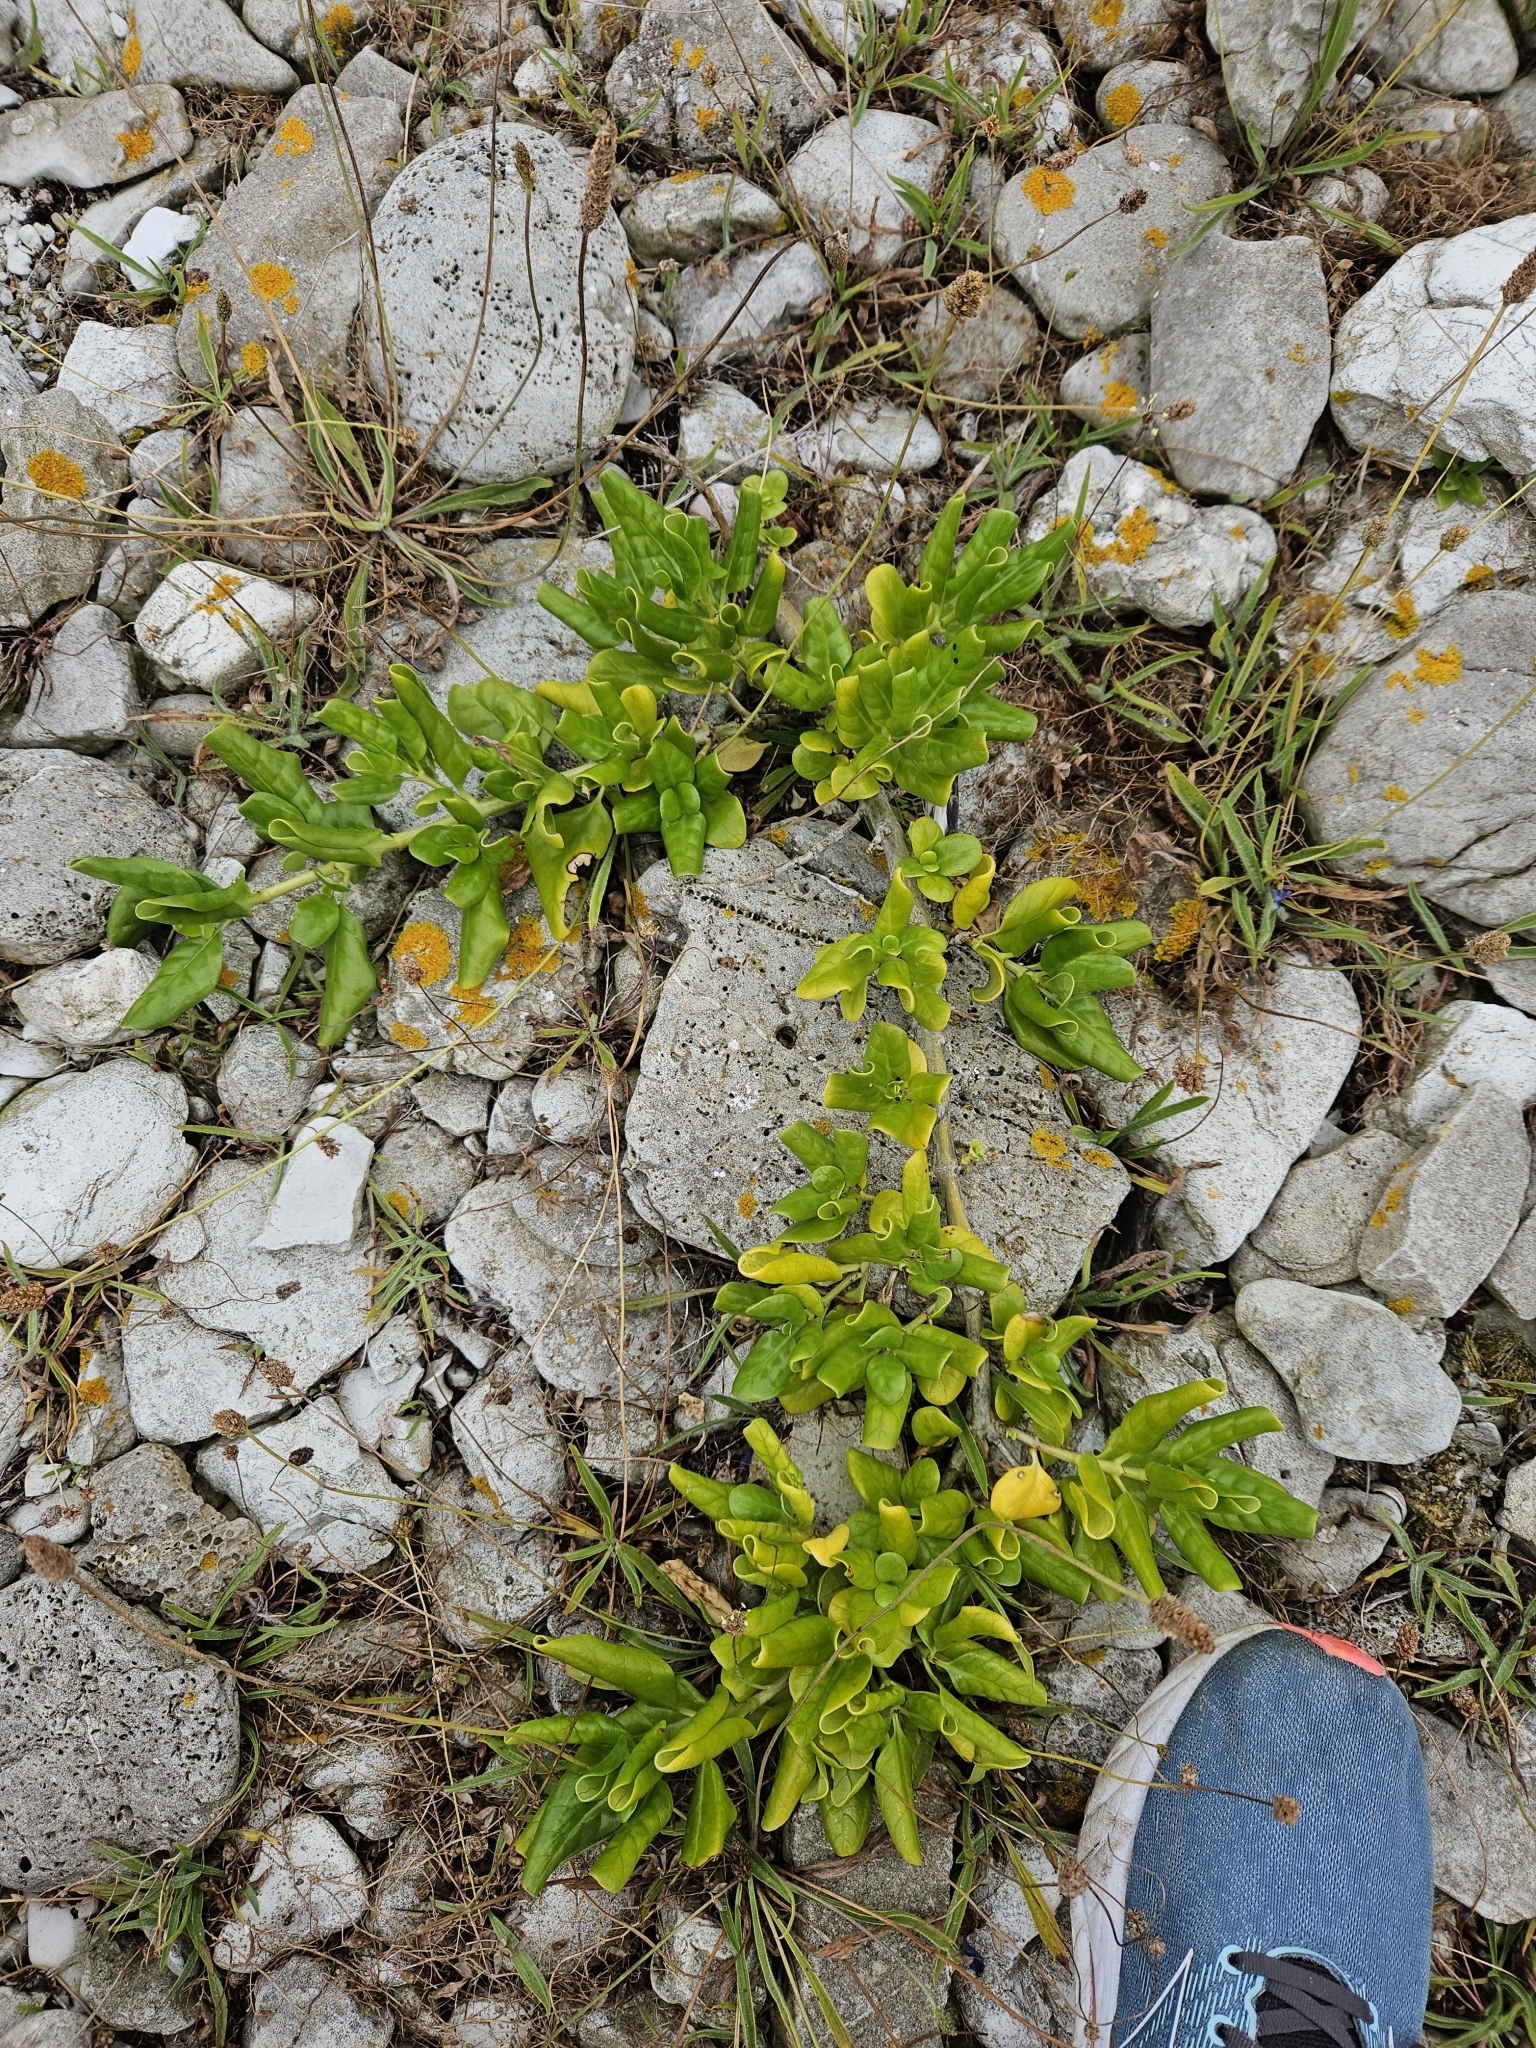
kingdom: Plantae
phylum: Tracheophyta
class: Magnoliopsida
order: Gentianales
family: Rubiaceae
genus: Coprosma
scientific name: Coprosma repens
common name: Tree bedstraw
